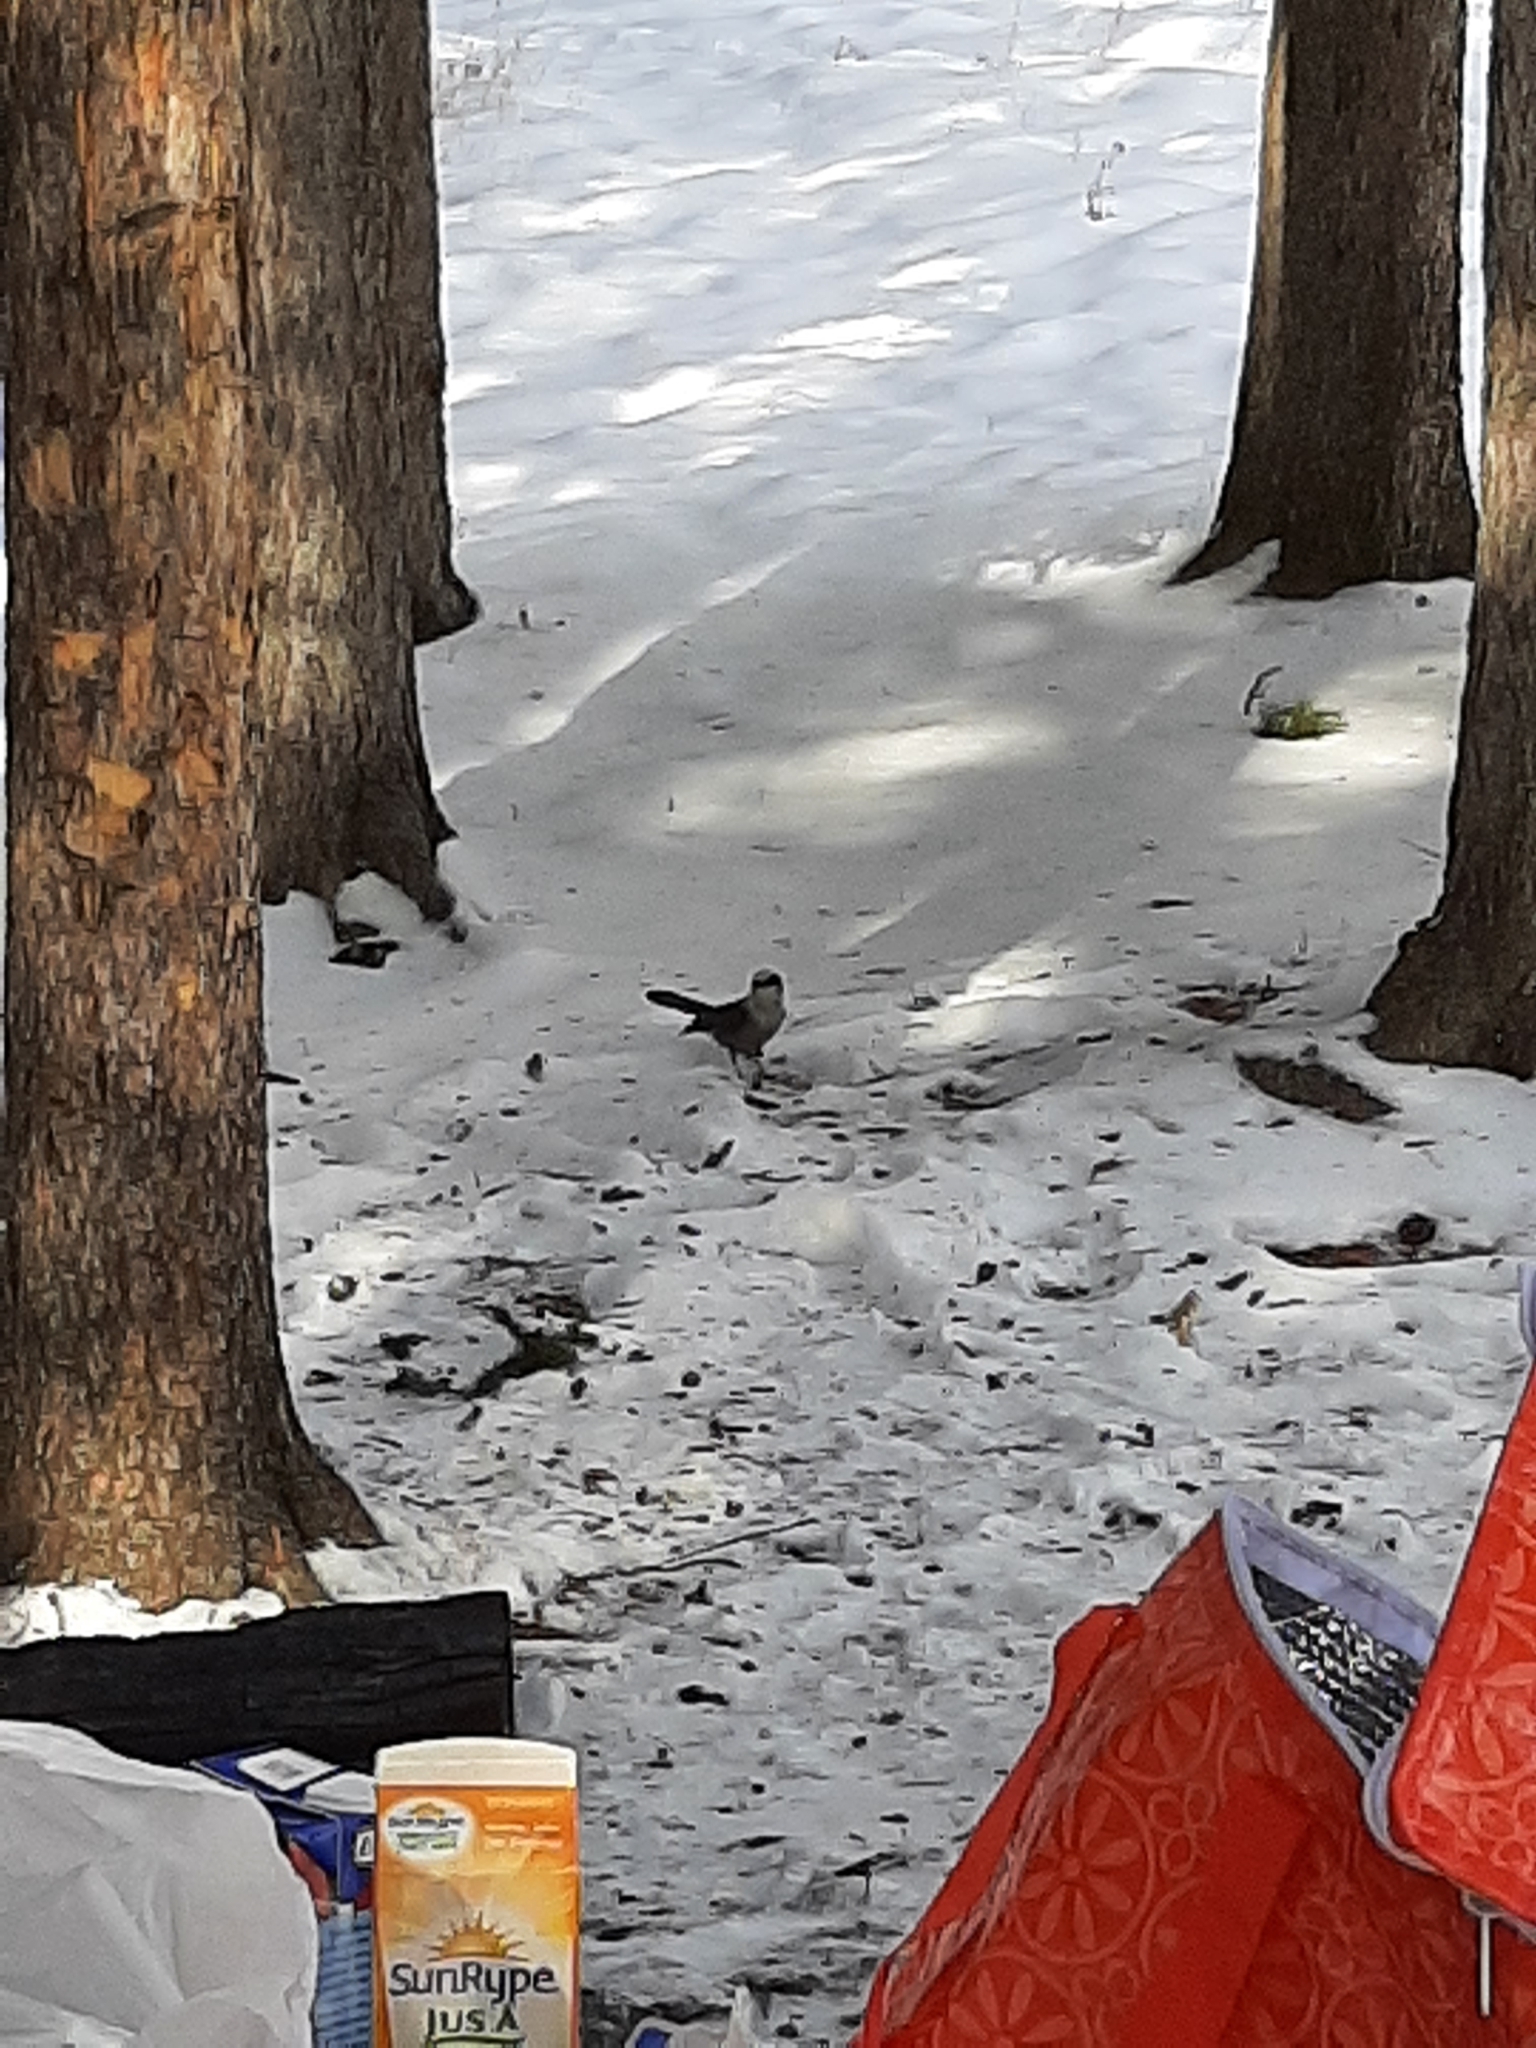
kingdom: Animalia
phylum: Chordata
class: Aves
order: Passeriformes
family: Corvidae
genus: Perisoreus
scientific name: Perisoreus canadensis
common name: Gray jay
